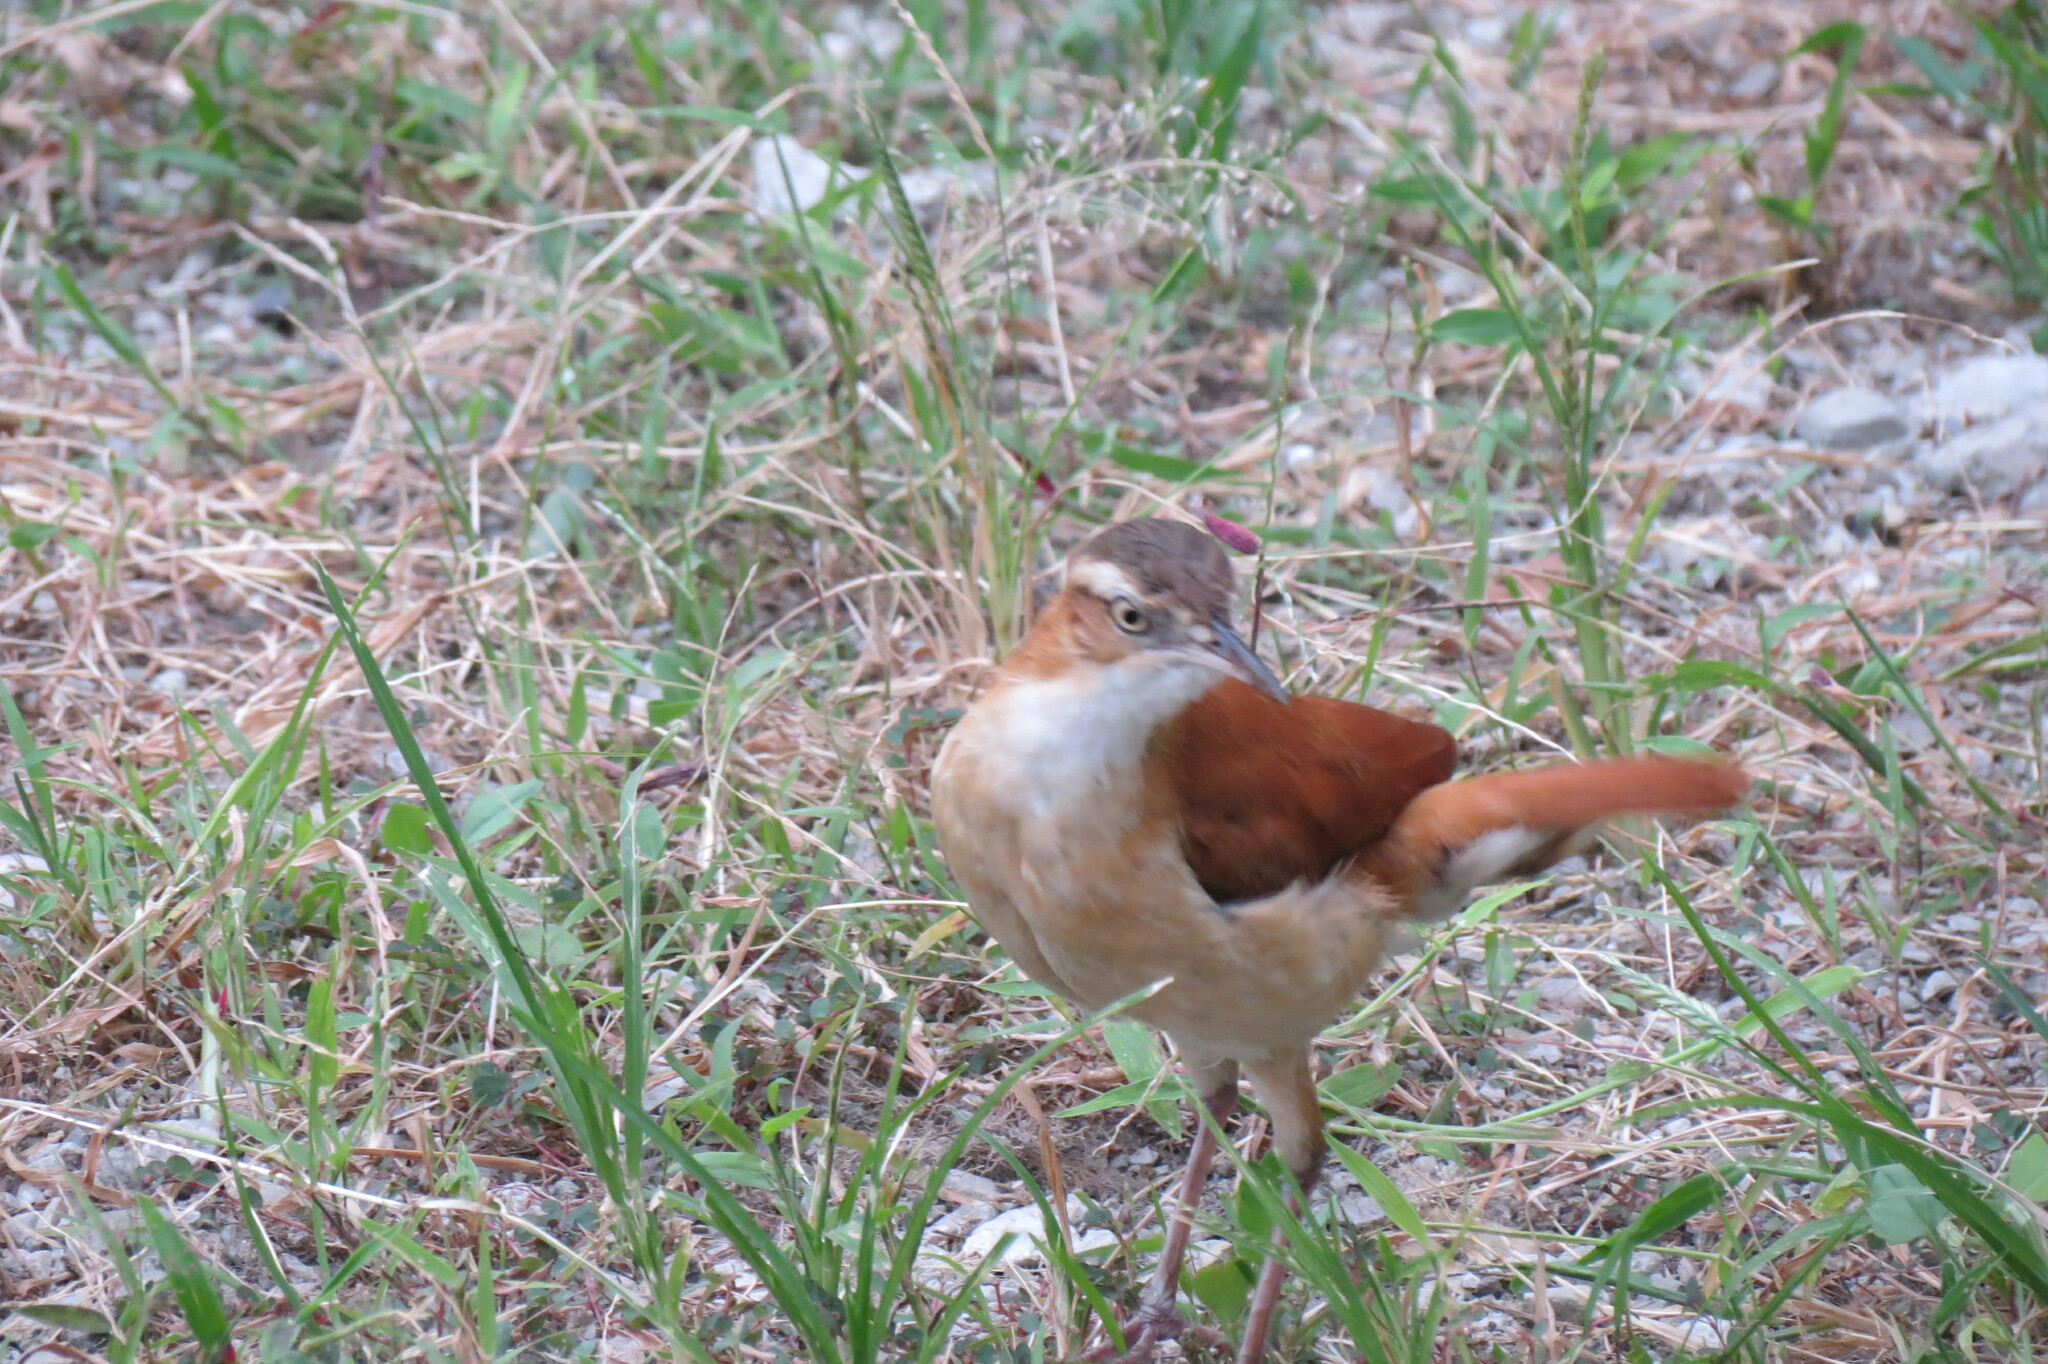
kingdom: Animalia
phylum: Chordata
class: Aves
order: Passeriformes
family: Furnariidae
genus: Furnarius
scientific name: Furnarius leucopus
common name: Pale-legged hornero
